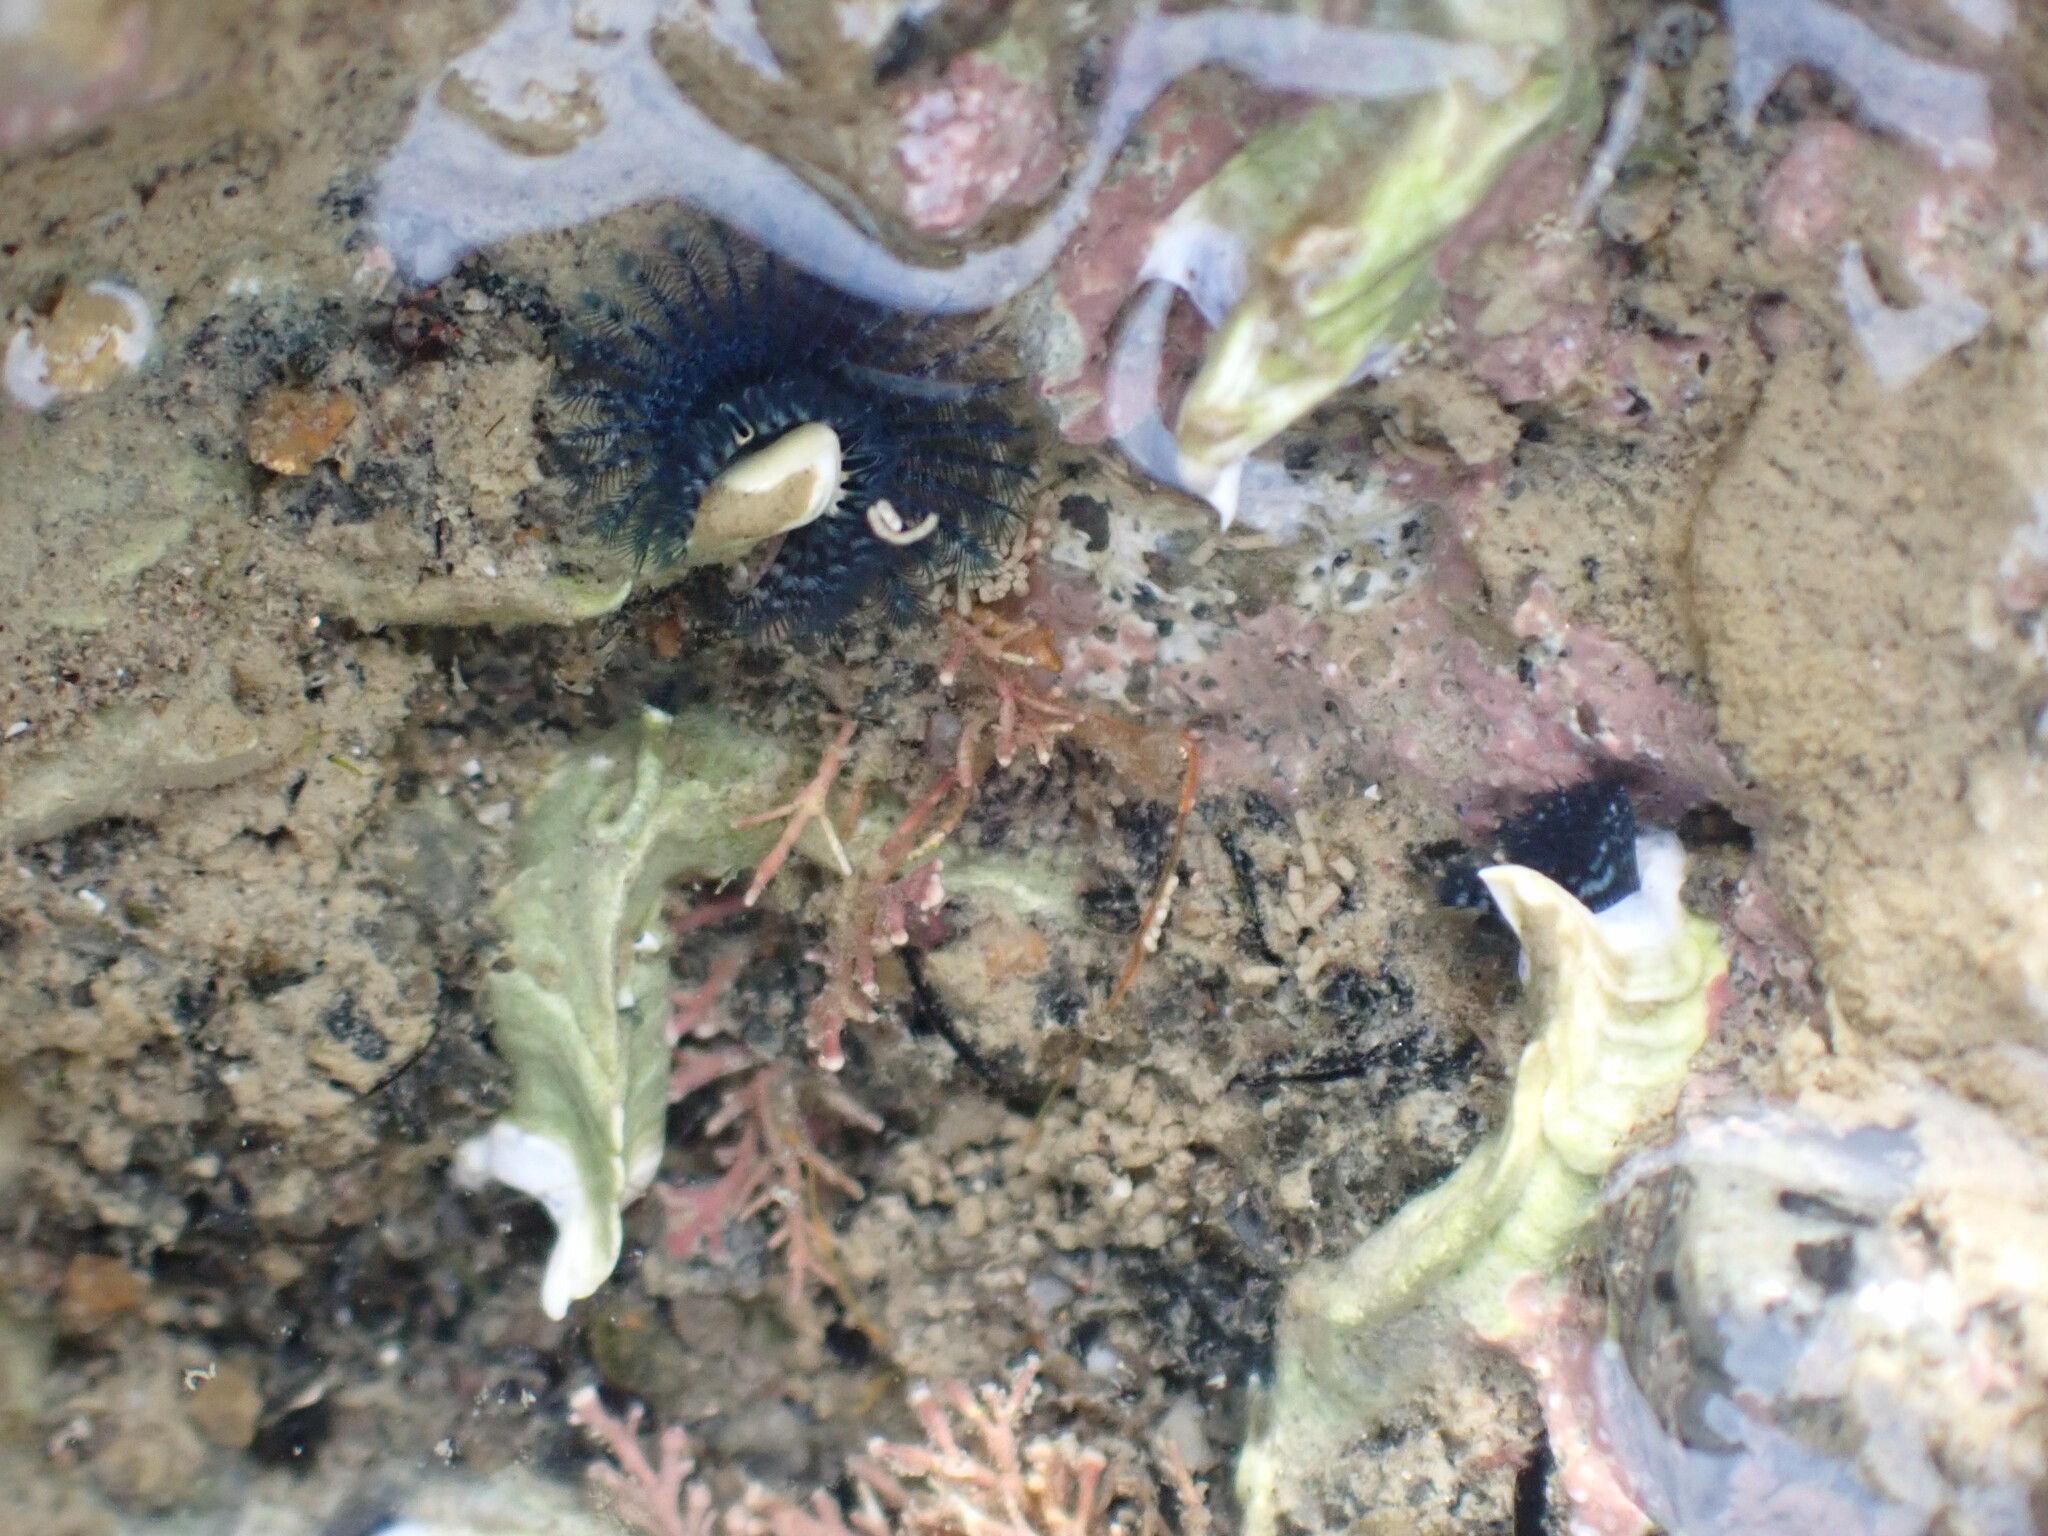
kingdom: Animalia
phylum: Annelida
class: Polychaeta
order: Sabellida
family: Serpulidae
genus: Spirobranchus
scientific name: Spirobranchus cariniferus
